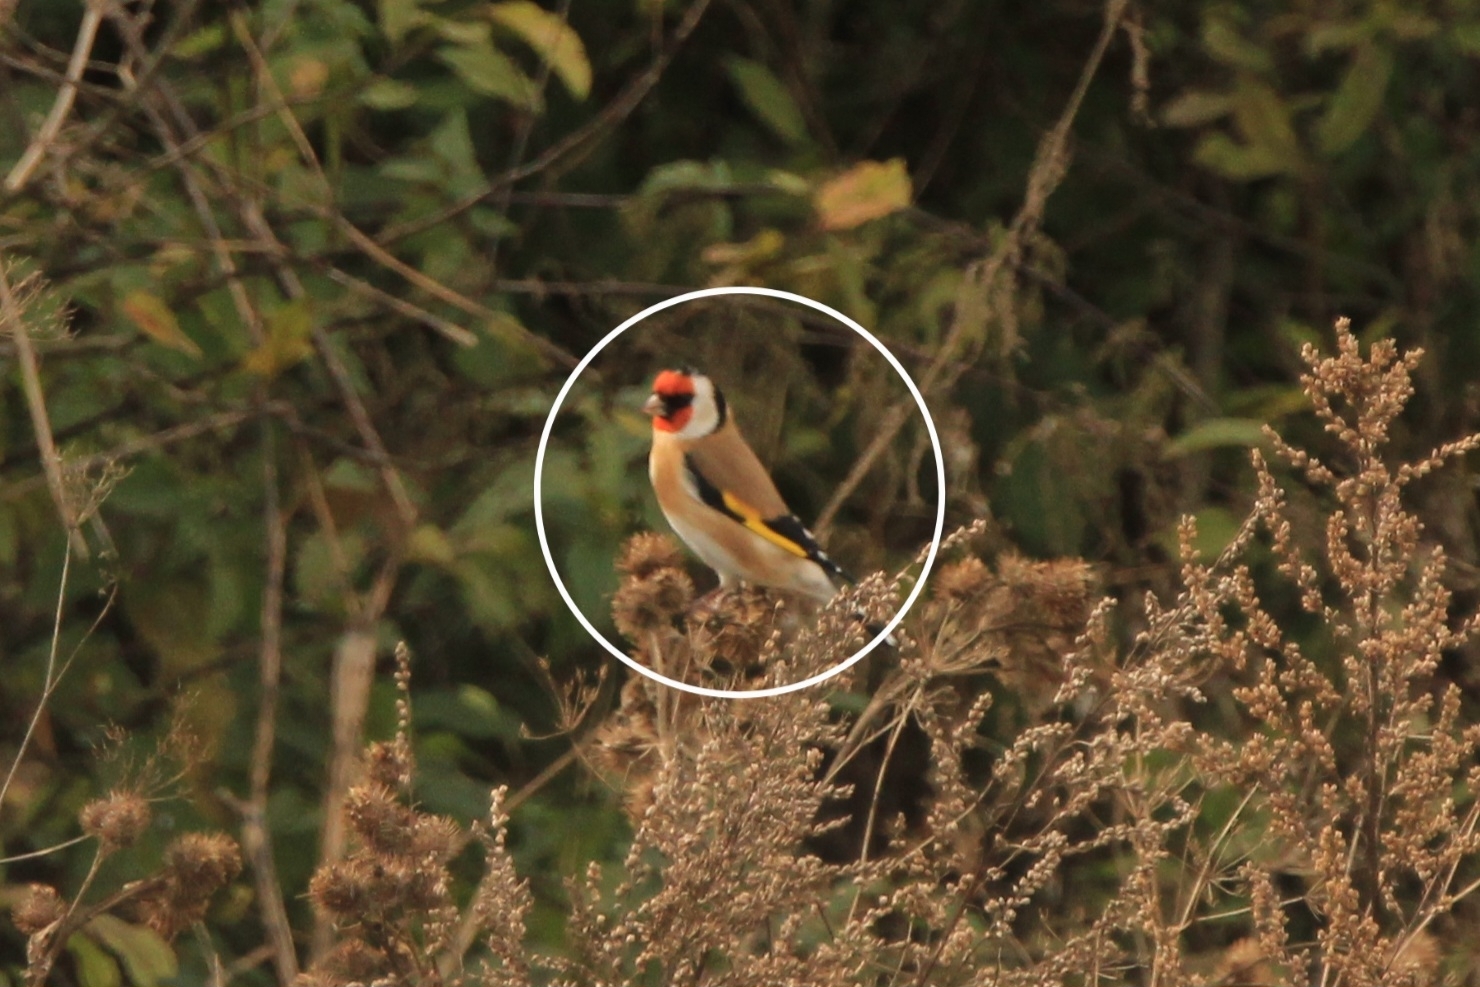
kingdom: Animalia
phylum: Chordata
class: Aves
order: Passeriformes
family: Fringillidae
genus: Carduelis
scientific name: Carduelis carduelis
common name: European goldfinch
